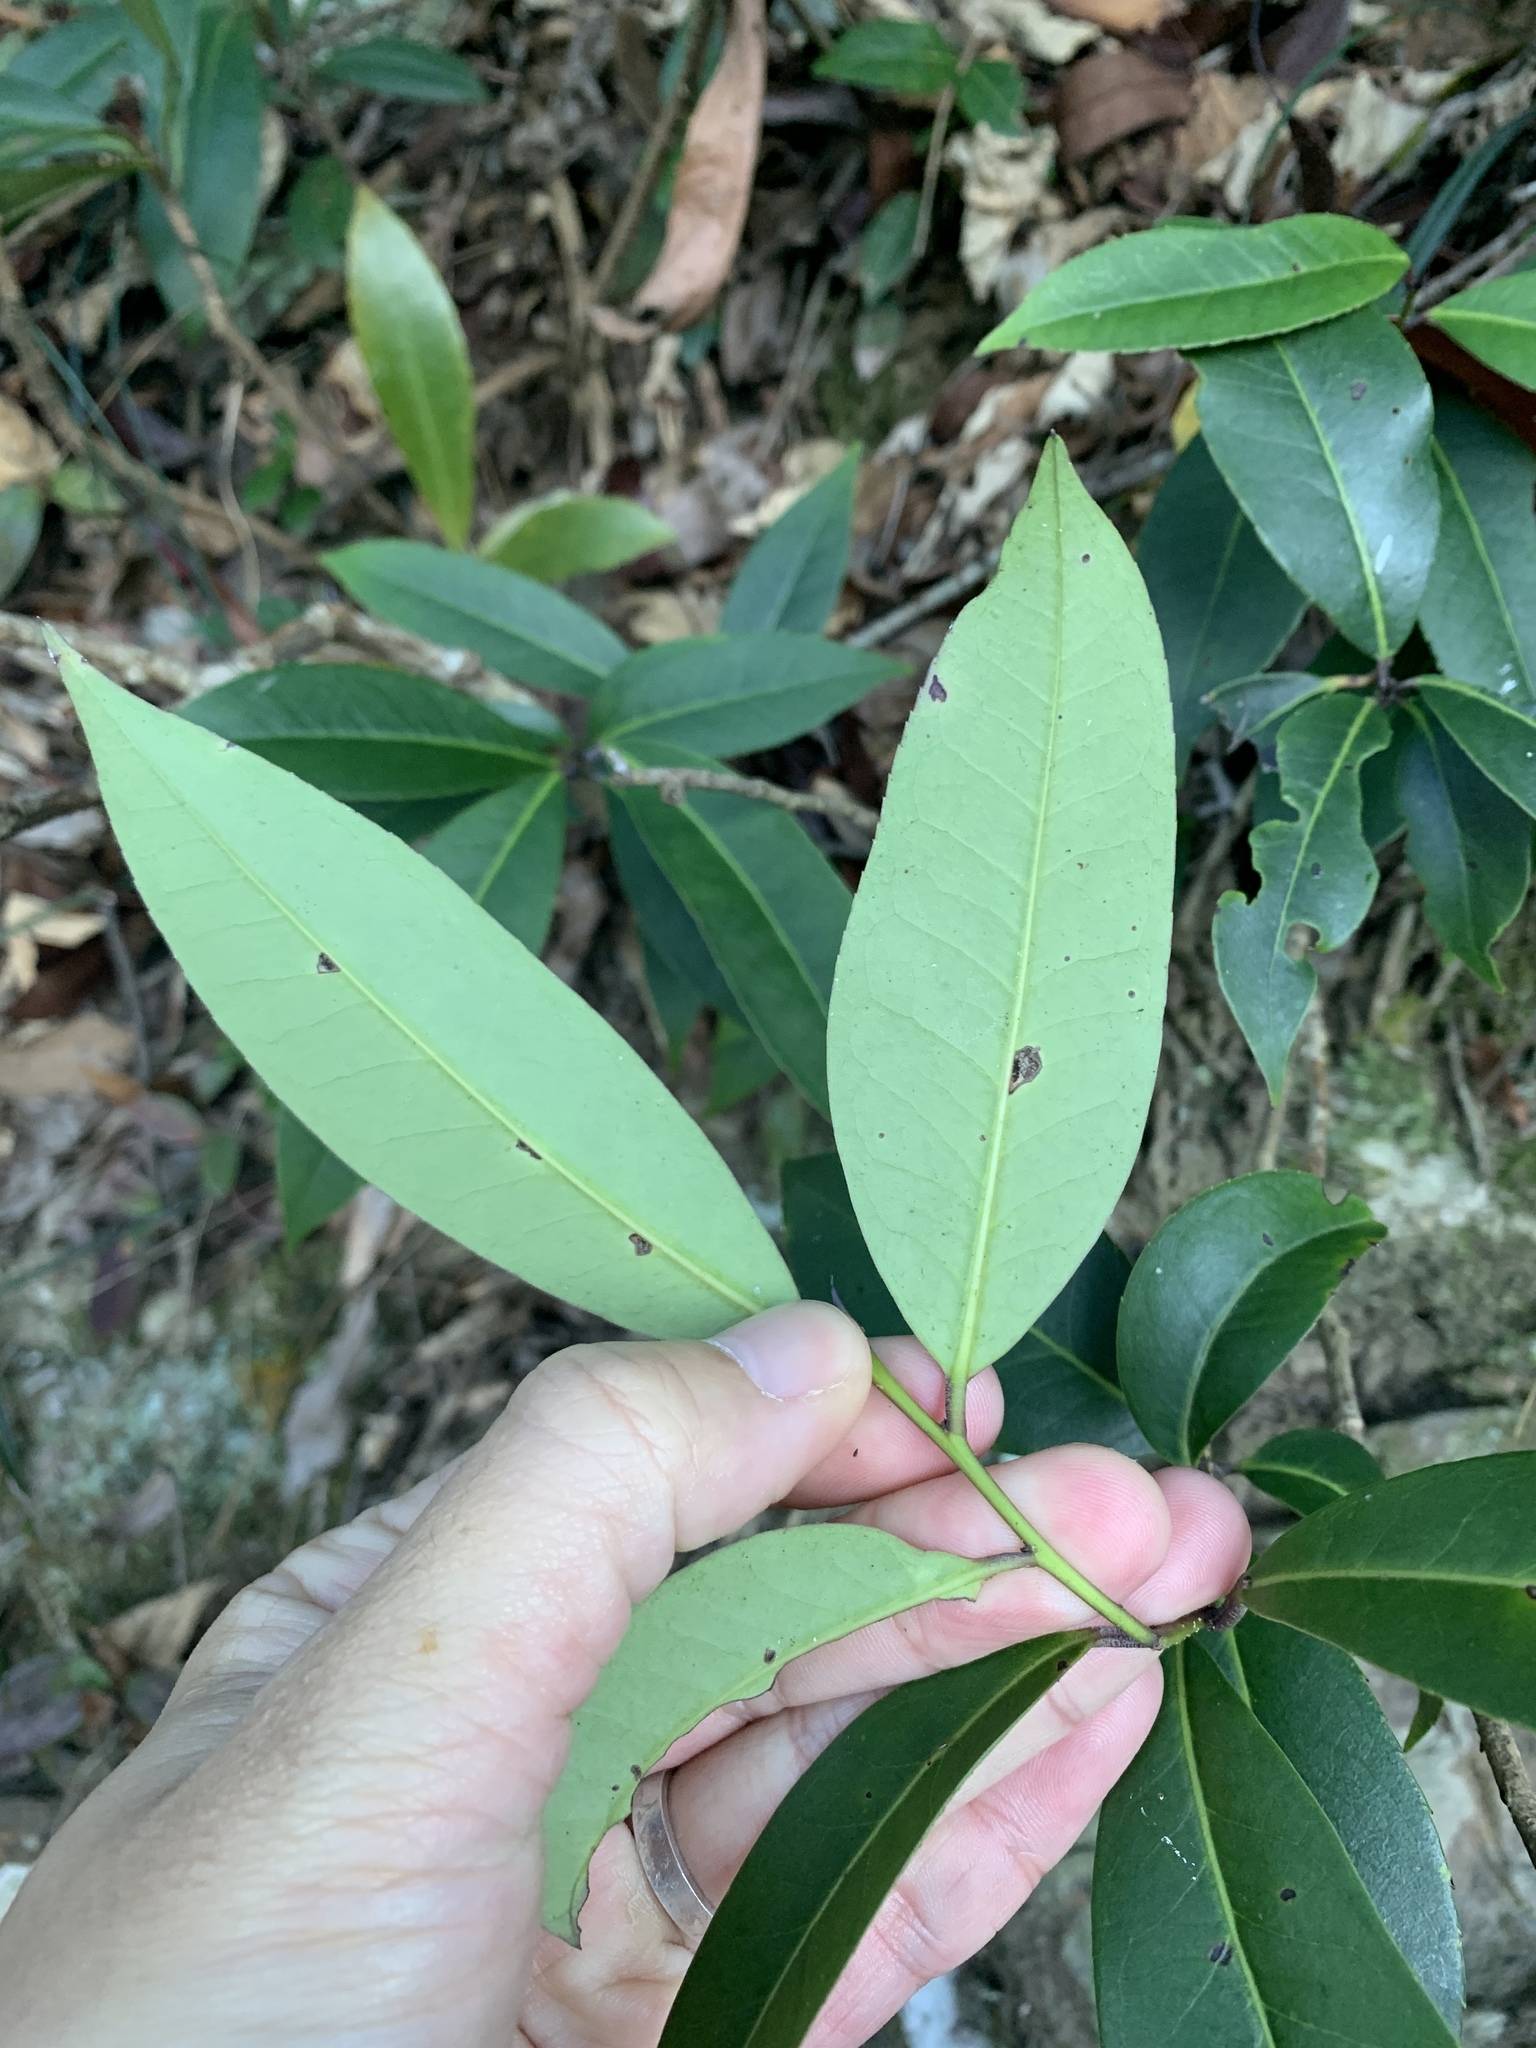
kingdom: Plantae
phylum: Tracheophyta
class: Magnoliopsida
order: Aquifoliales
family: Aquifoliaceae
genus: Ilex
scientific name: Ilex tugitakayamensis
